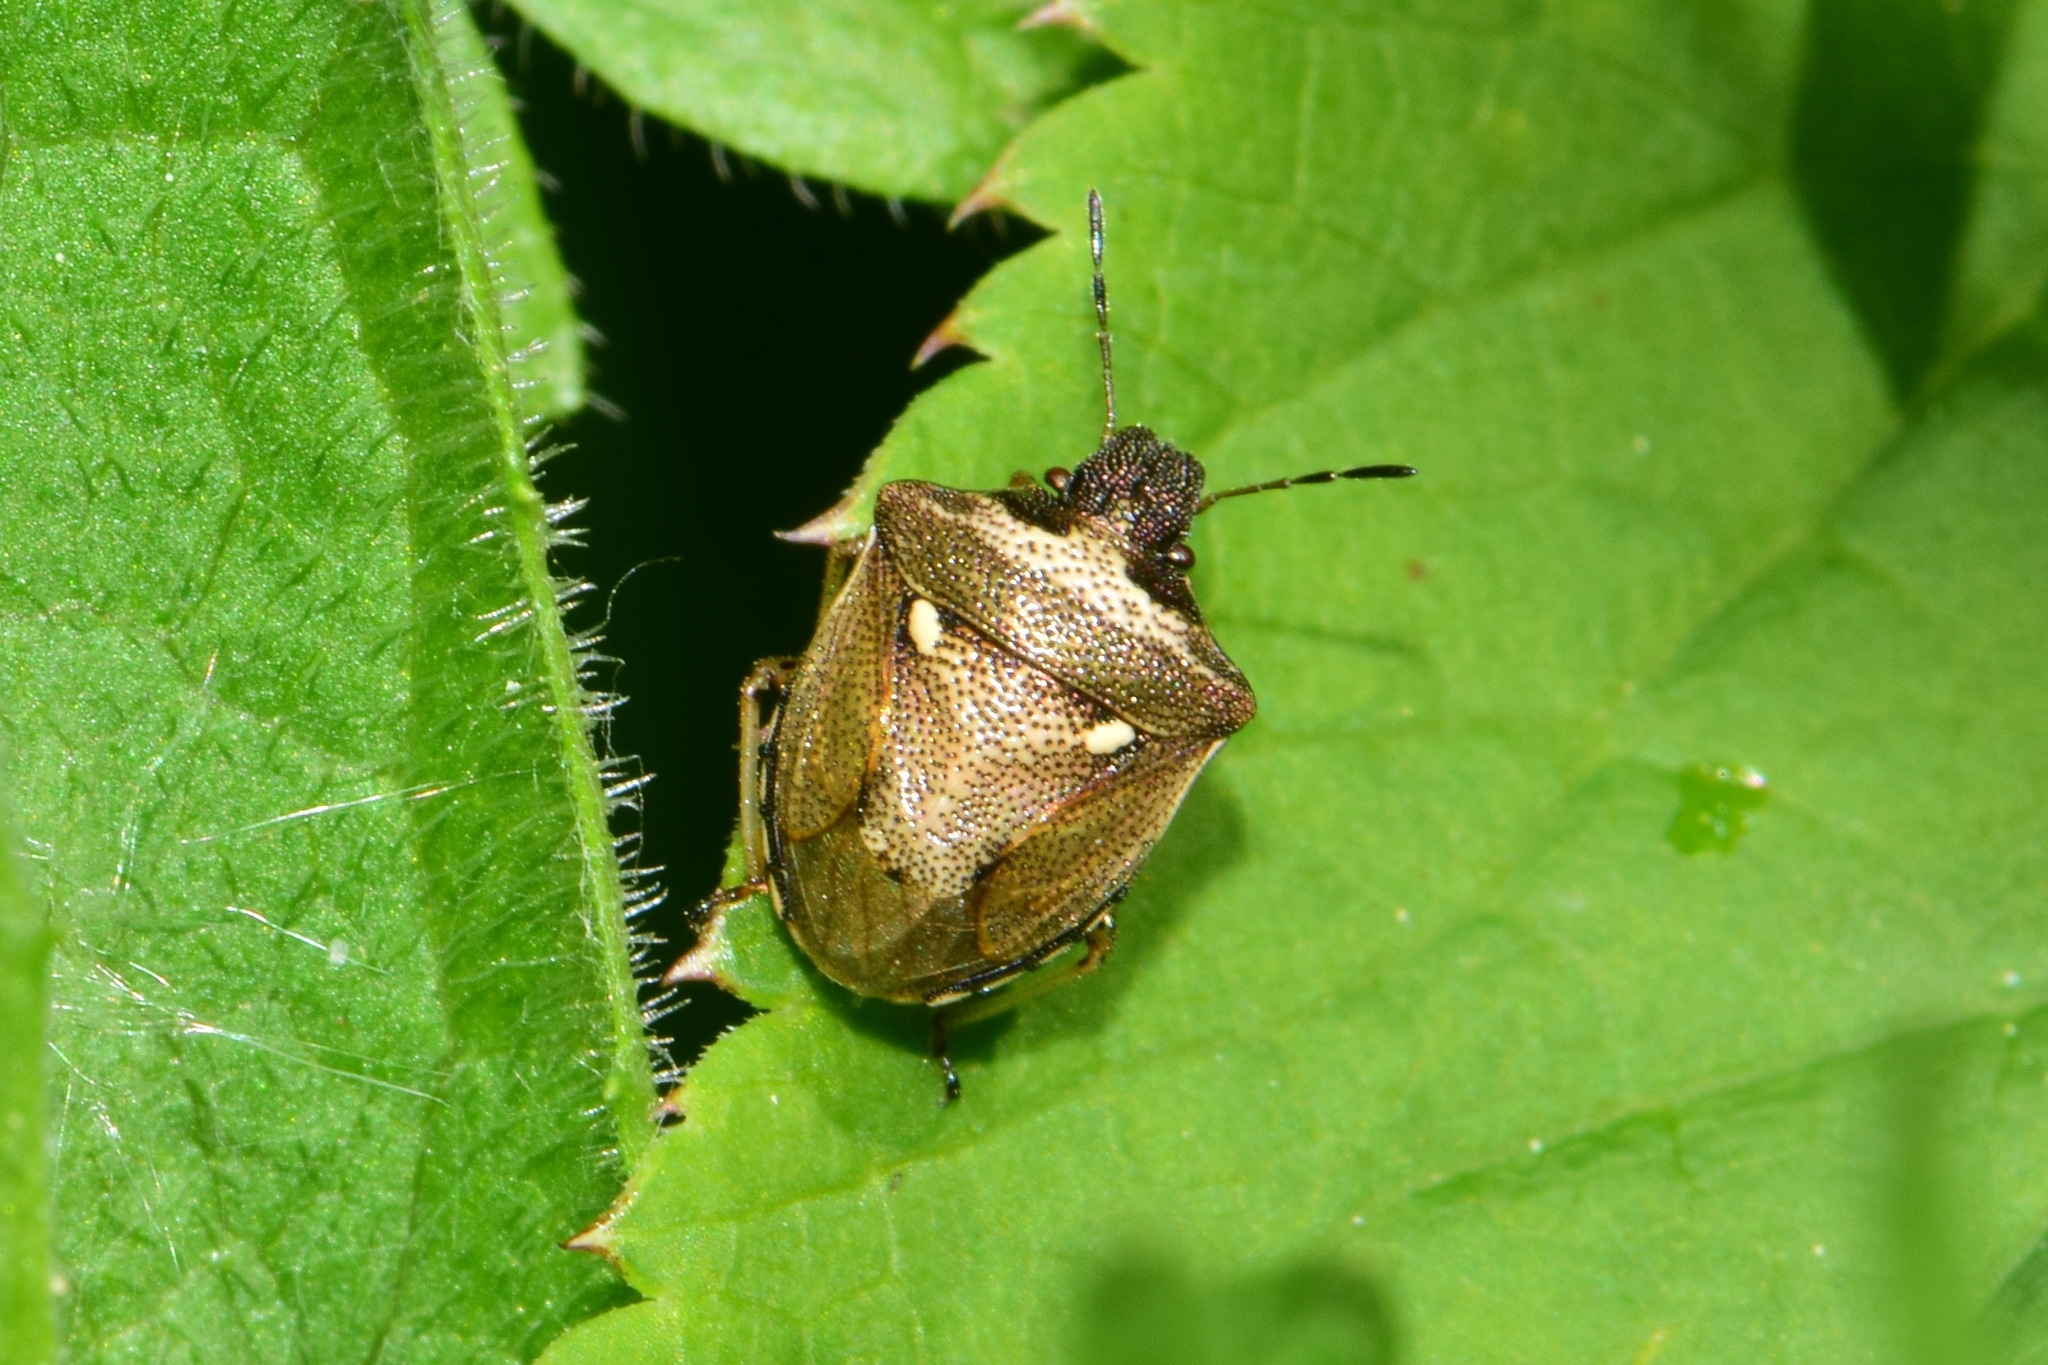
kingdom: Animalia
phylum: Arthropoda
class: Insecta
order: Hemiptera
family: Pentatomidae
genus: Eysarcoris
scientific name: Eysarcoris aeneus
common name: New forest shieldbug
